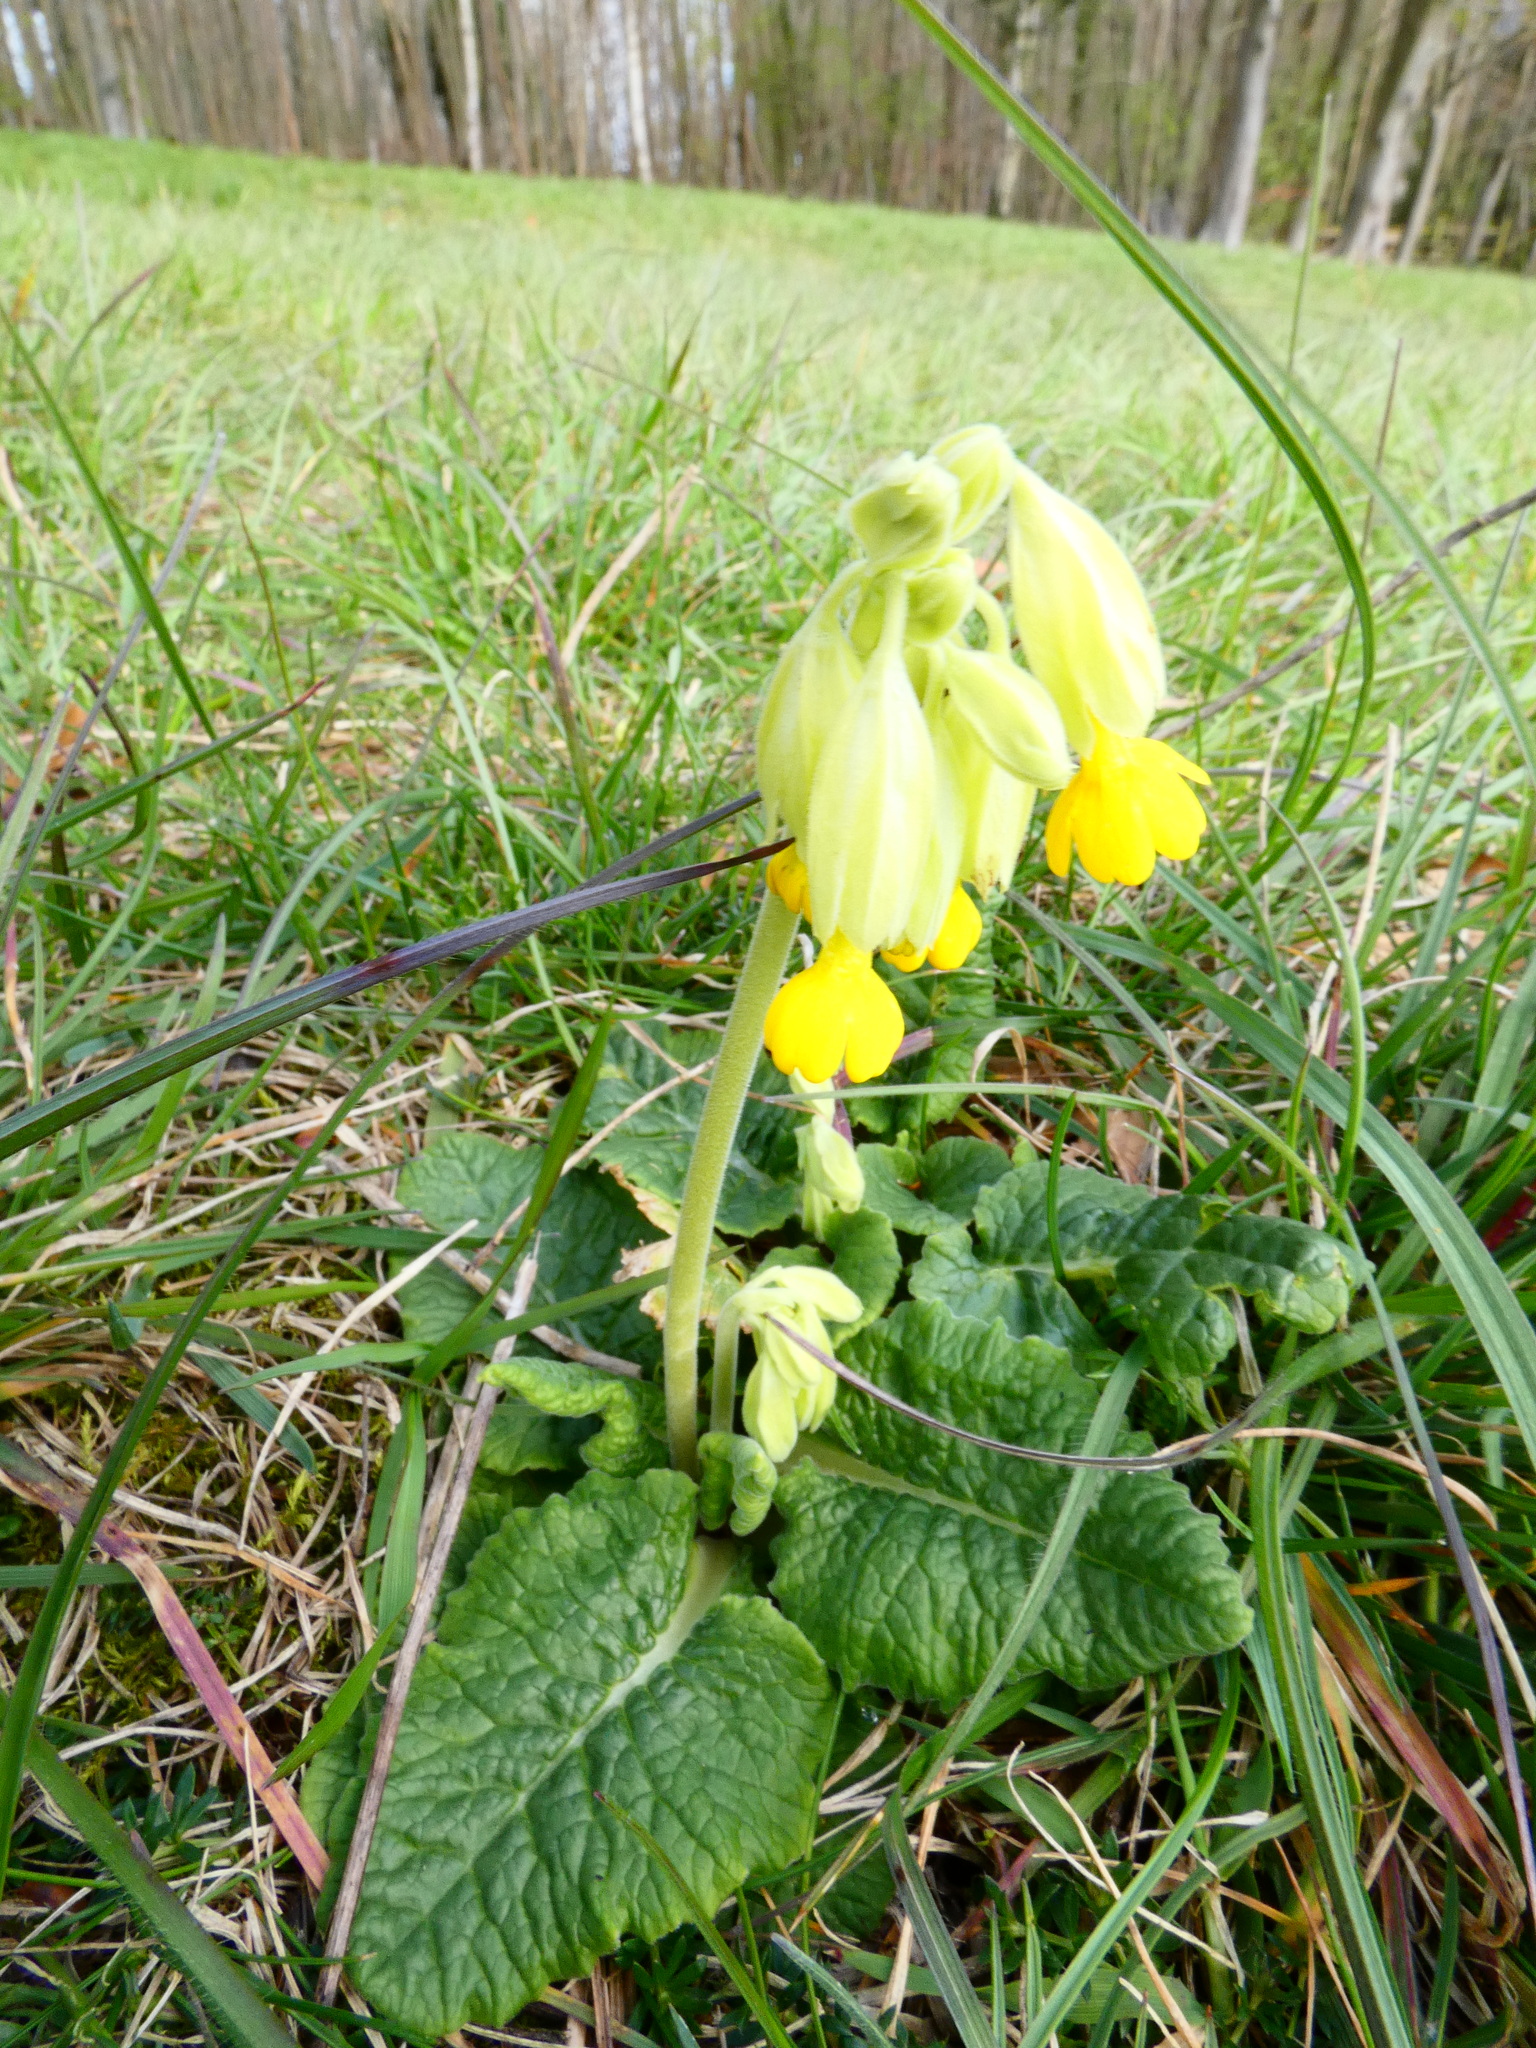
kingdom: Plantae
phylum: Tracheophyta
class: Magnoliopsida
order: Ericales
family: Primulaceae
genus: Primula
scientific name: Primula veris
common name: Cowslip
